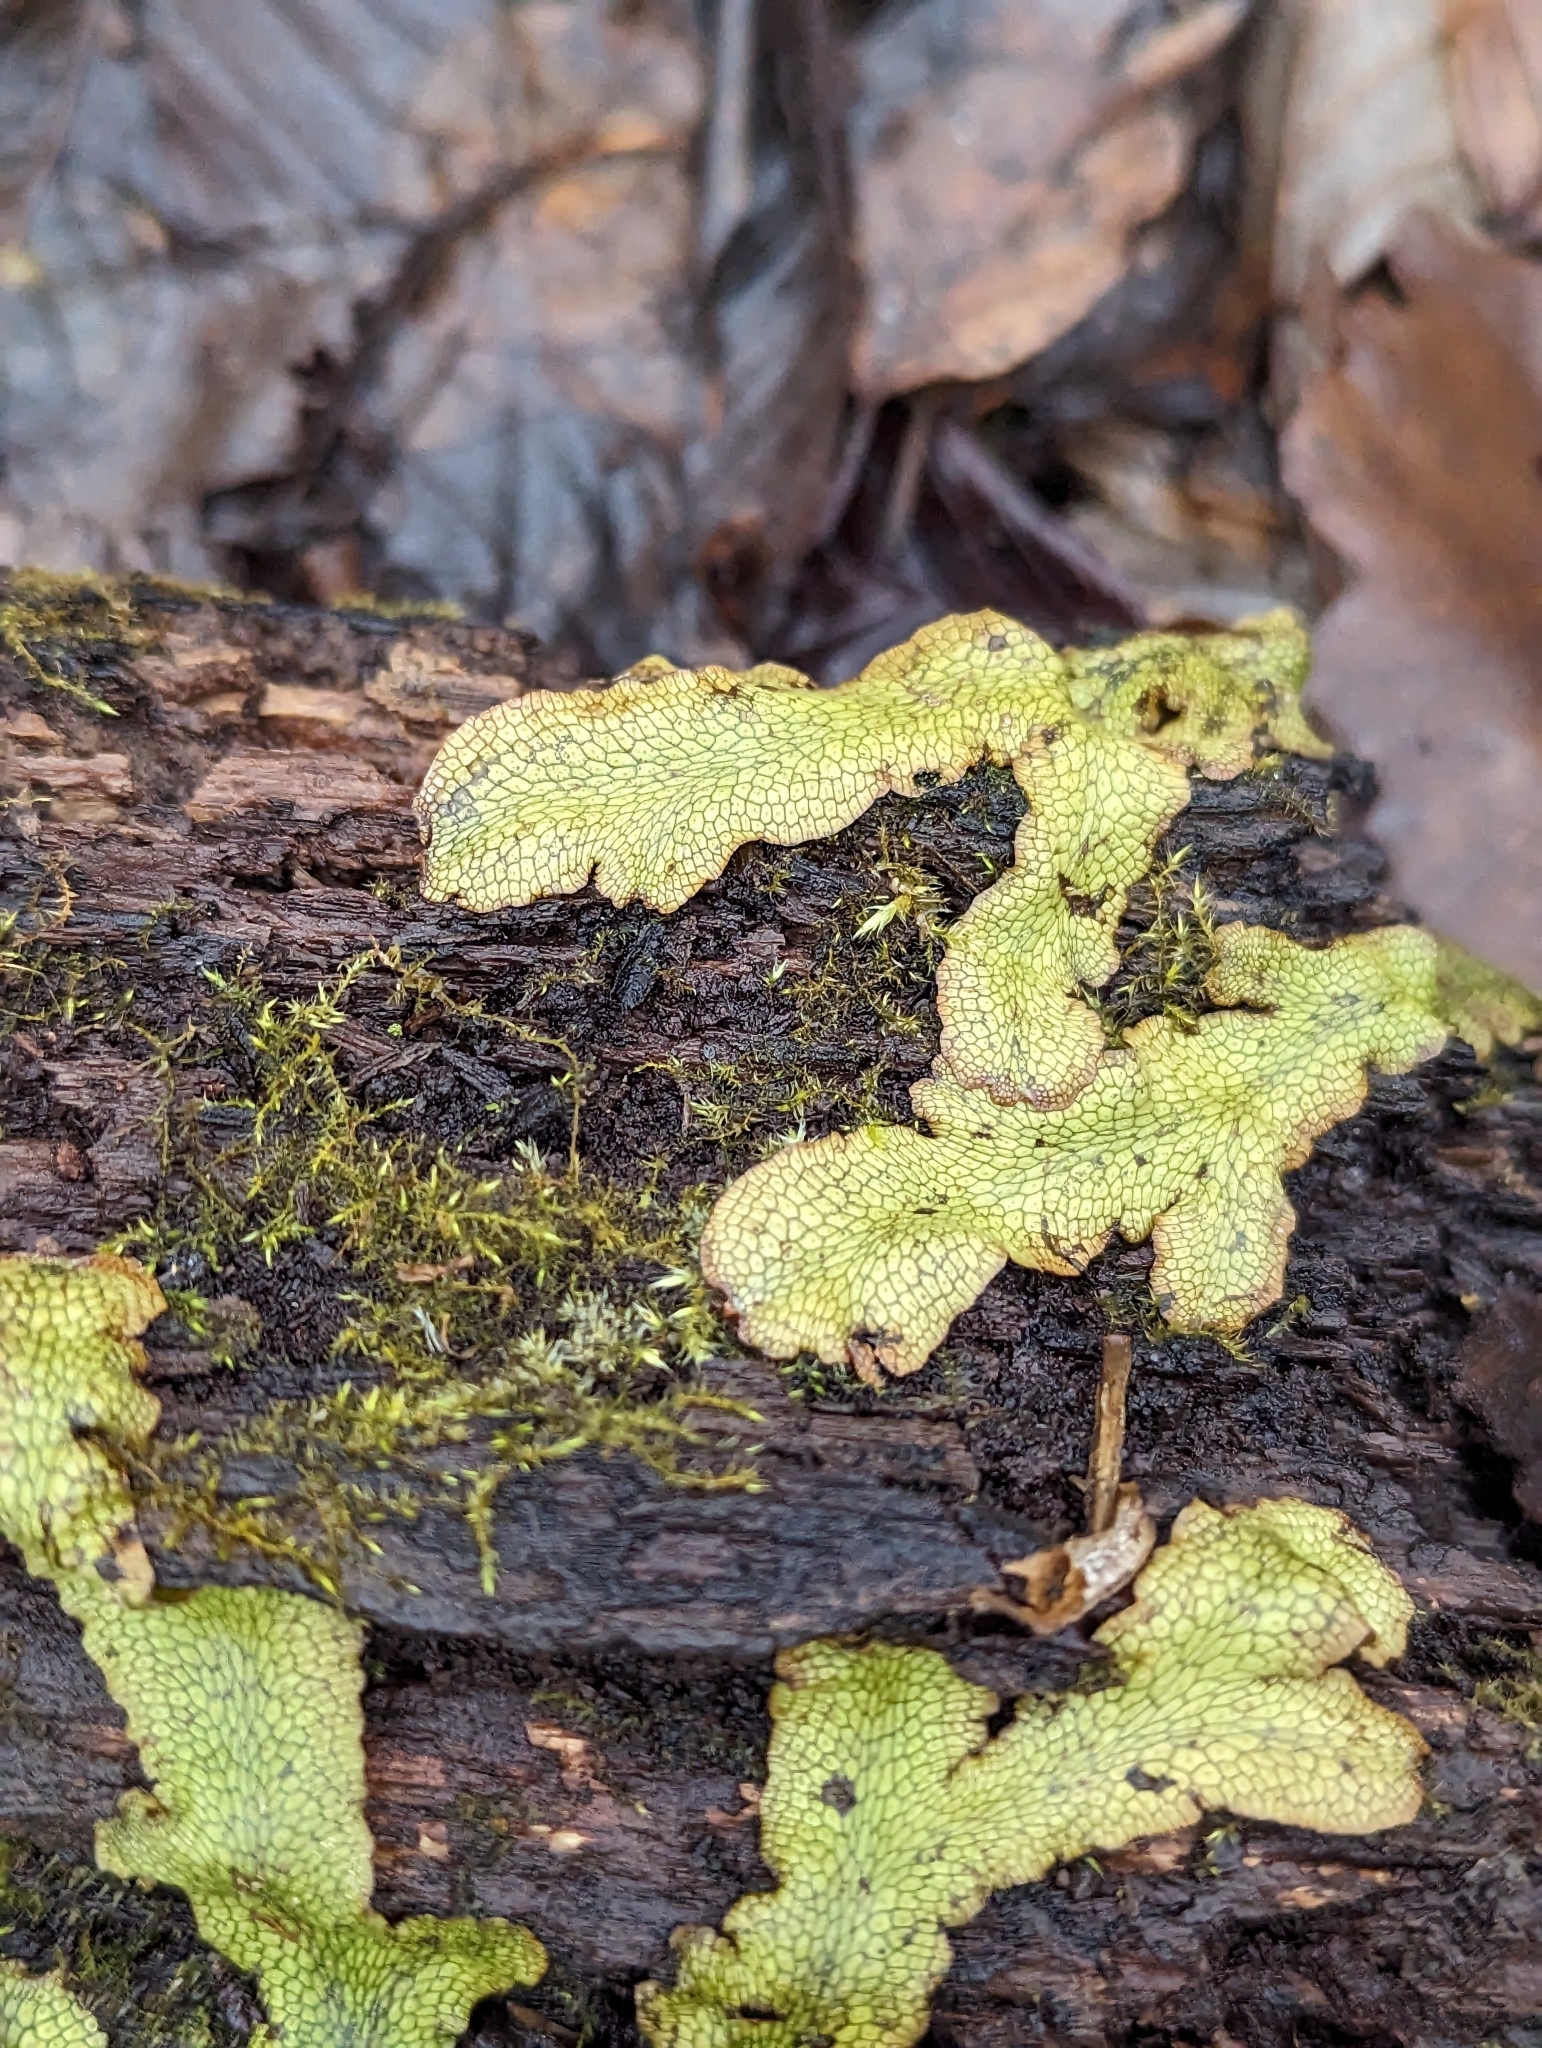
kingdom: Plantae
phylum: Marchantiophyta
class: Marchantiopsida
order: Marchantiales
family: Conocephalaceae
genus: Conocephalum
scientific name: Conocephalum salebrosum
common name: Cat-tongue liverwort
